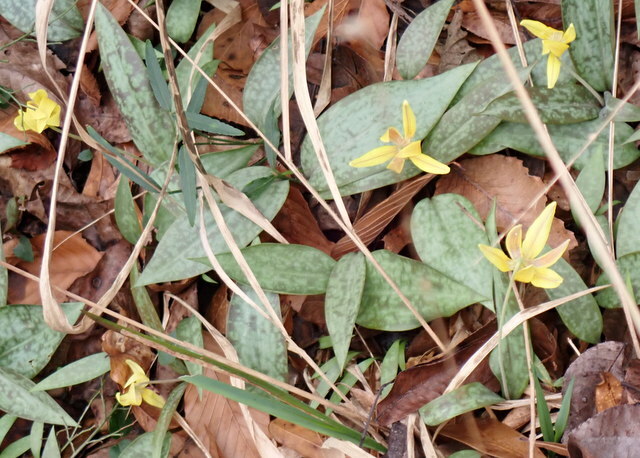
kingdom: Plantae
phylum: Tracheophyta
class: Liliopsida
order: Liliales
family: Liliaceae
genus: Erythronium
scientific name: Erythronium umbilicatum
